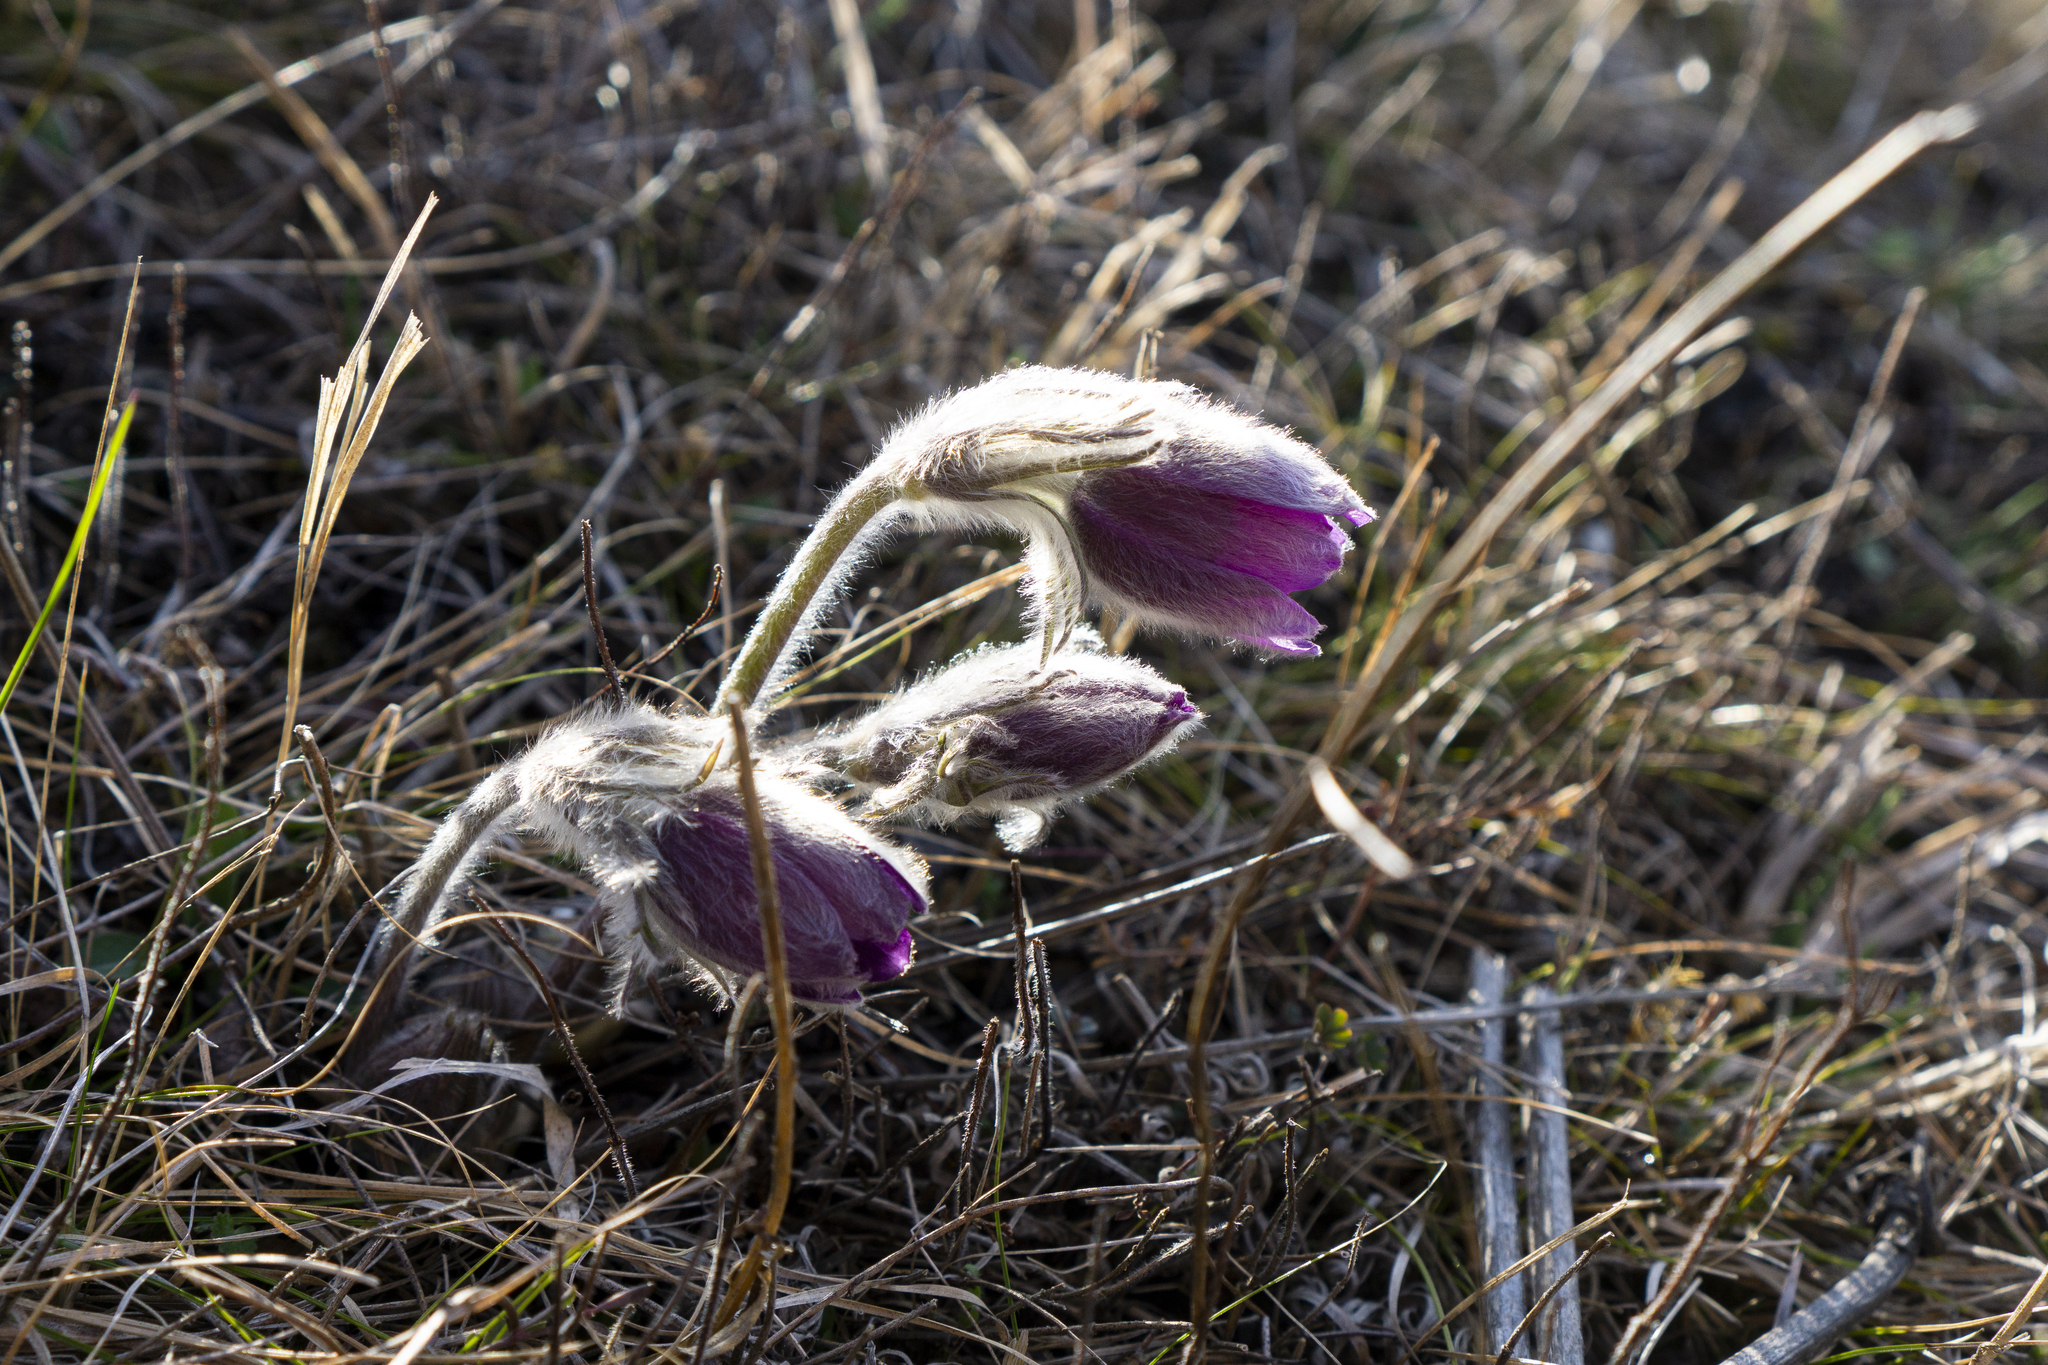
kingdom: Plantae
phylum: Tracheophyta
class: Magnoliopsida
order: Ranunculales
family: Ranunculaceae
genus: Pulsatilla
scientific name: Pulsatilla montana
